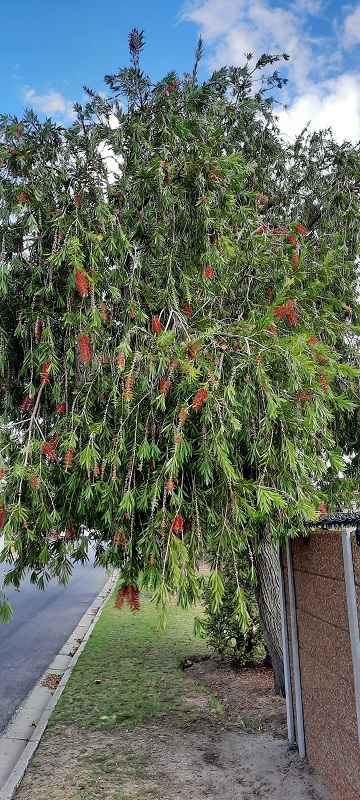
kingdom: Plantae
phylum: Tracheophyta
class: Magnoliopsida
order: Myrtales
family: Myrtaceae
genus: Callistemon
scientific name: Callistemon viminalis
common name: Drooping bottlebrush
